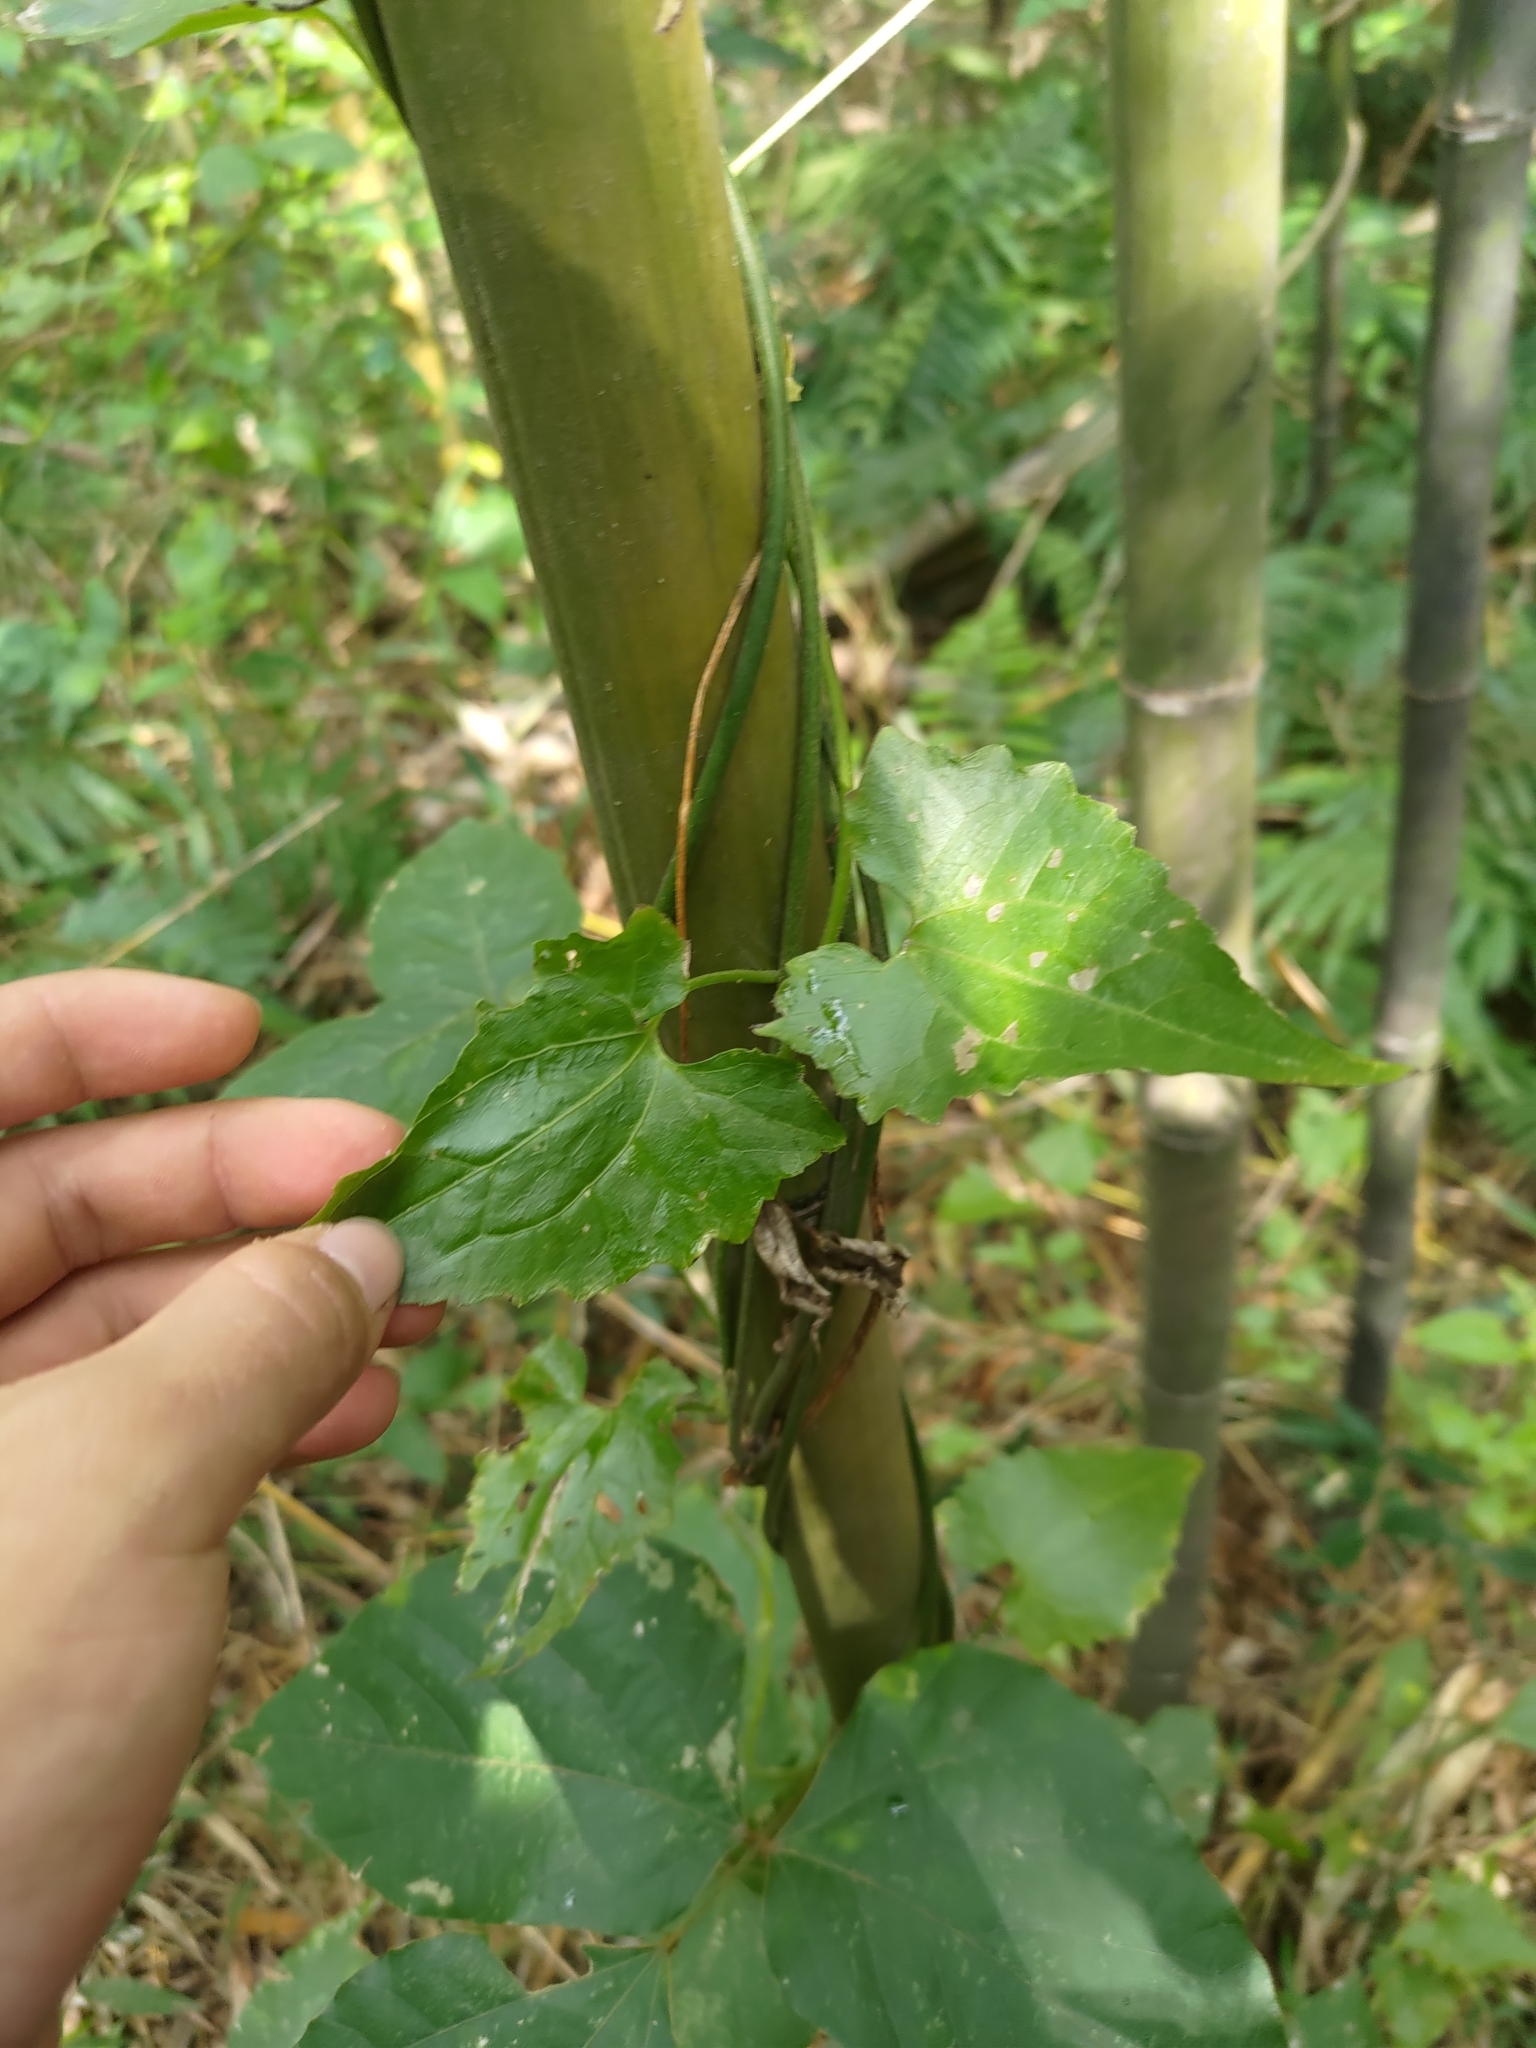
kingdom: Plantae
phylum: Tracheophyta
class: Magnoliopsida
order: Asterales
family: Asteraceae
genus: Mikania
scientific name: Mikania micrantha
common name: Mile-a-minute
